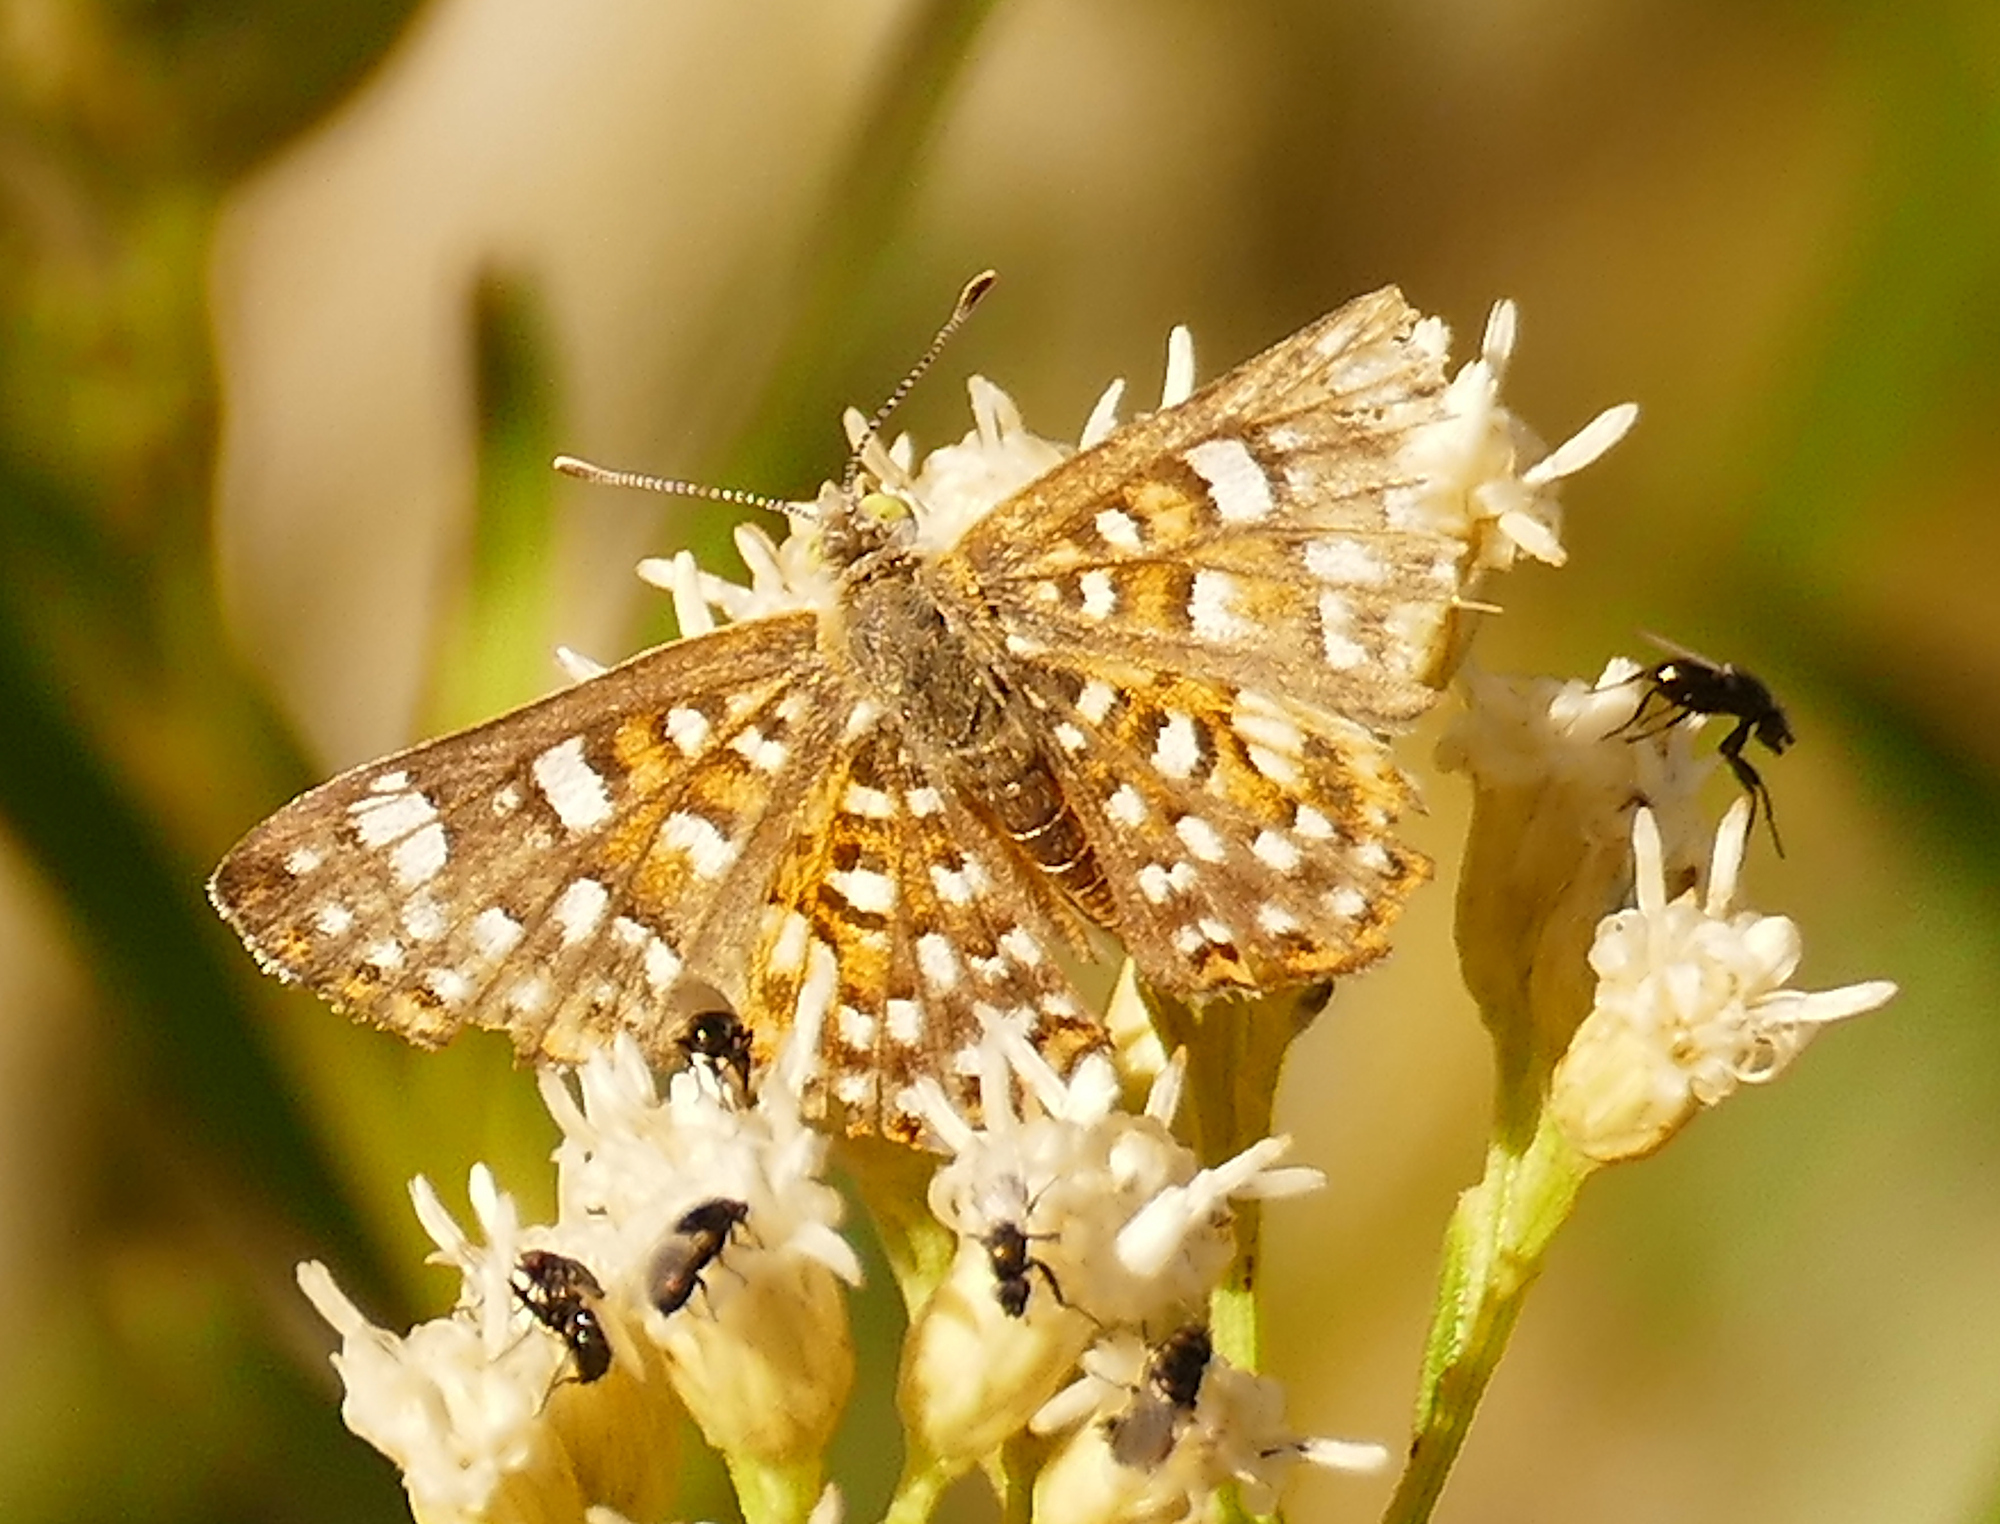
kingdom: Animalia
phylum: Arthropoda
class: Insecta
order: Lepidoptera
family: Riodinidae
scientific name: Riodinidae
